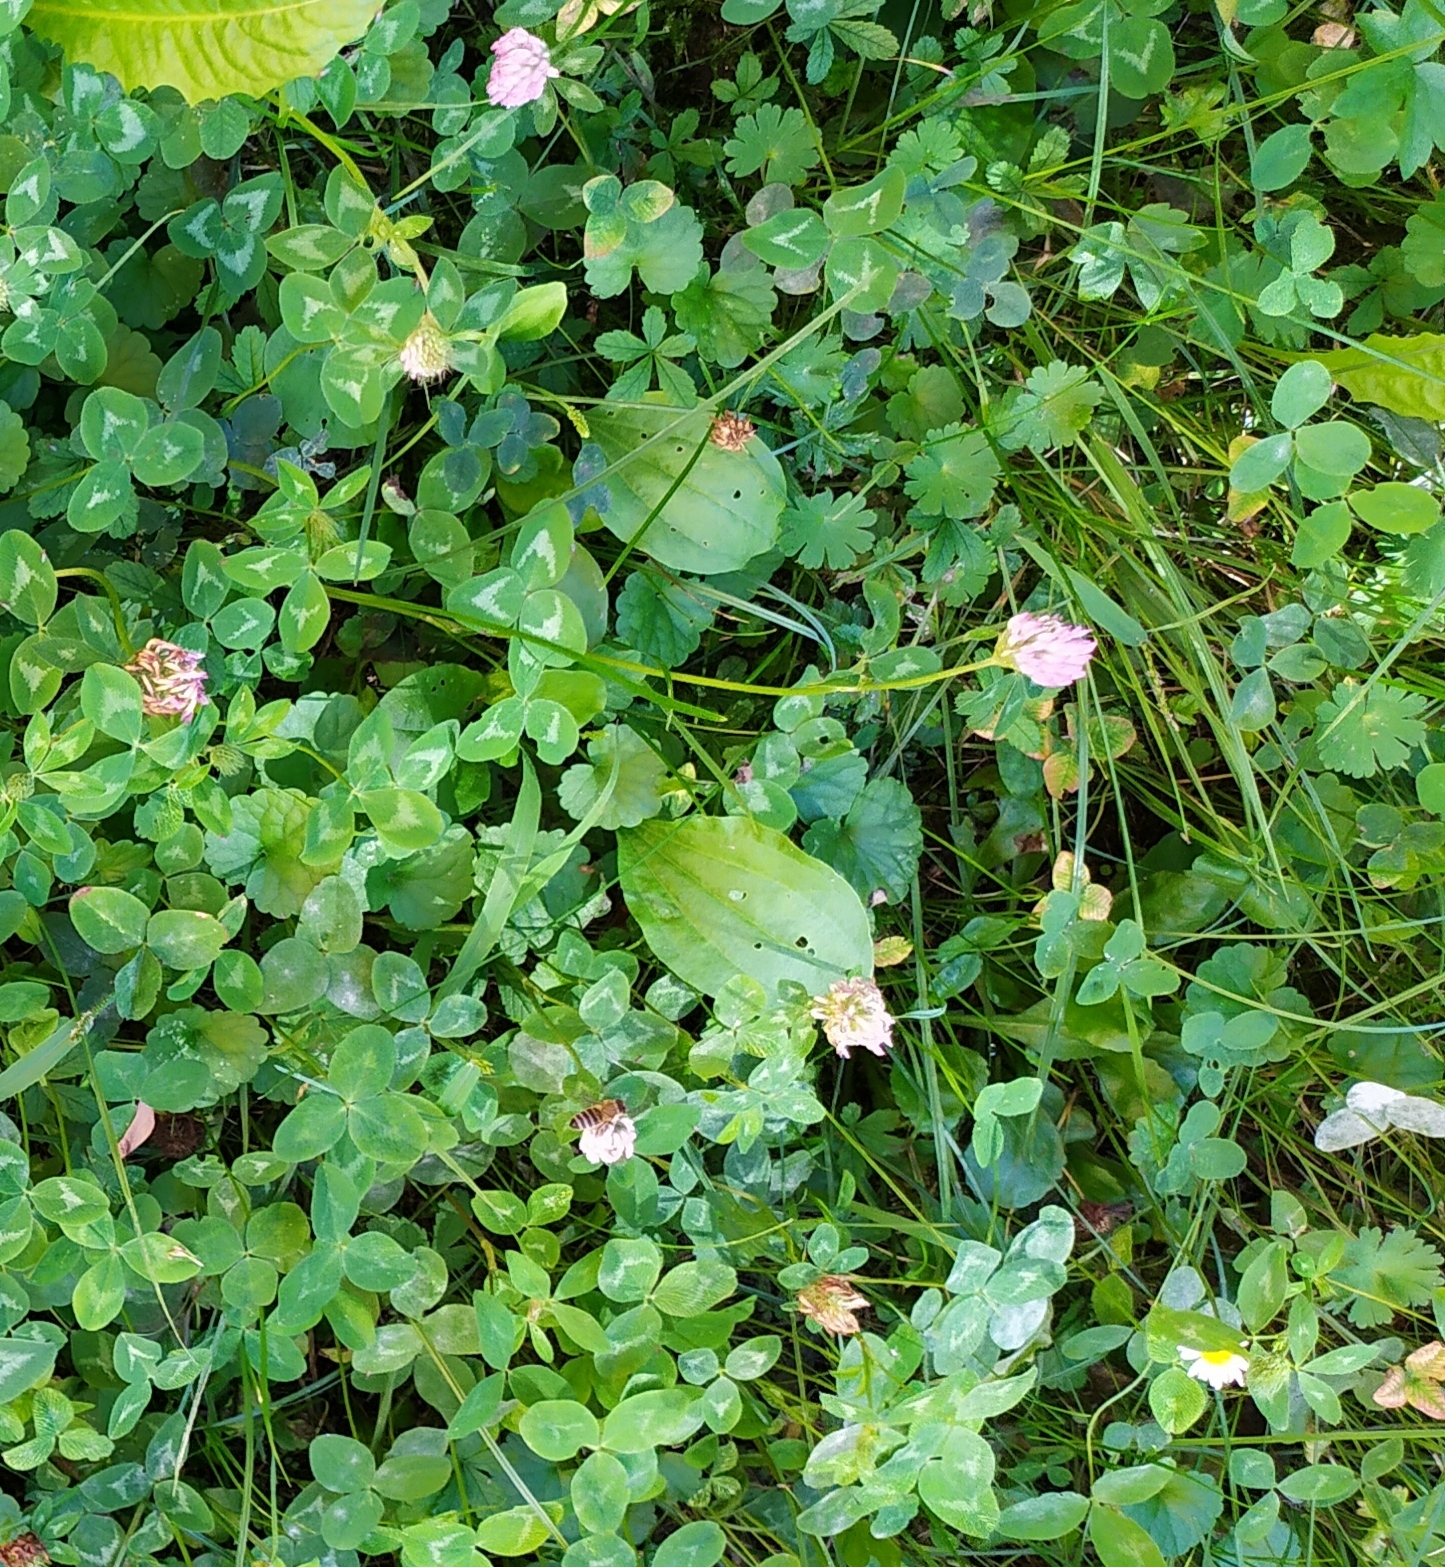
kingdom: Plantae
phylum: Tracheophyta
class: Magnoliopsida
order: Lamiales
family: Plantaginaceae
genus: Plantago
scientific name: Plantago major
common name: Common plantain
